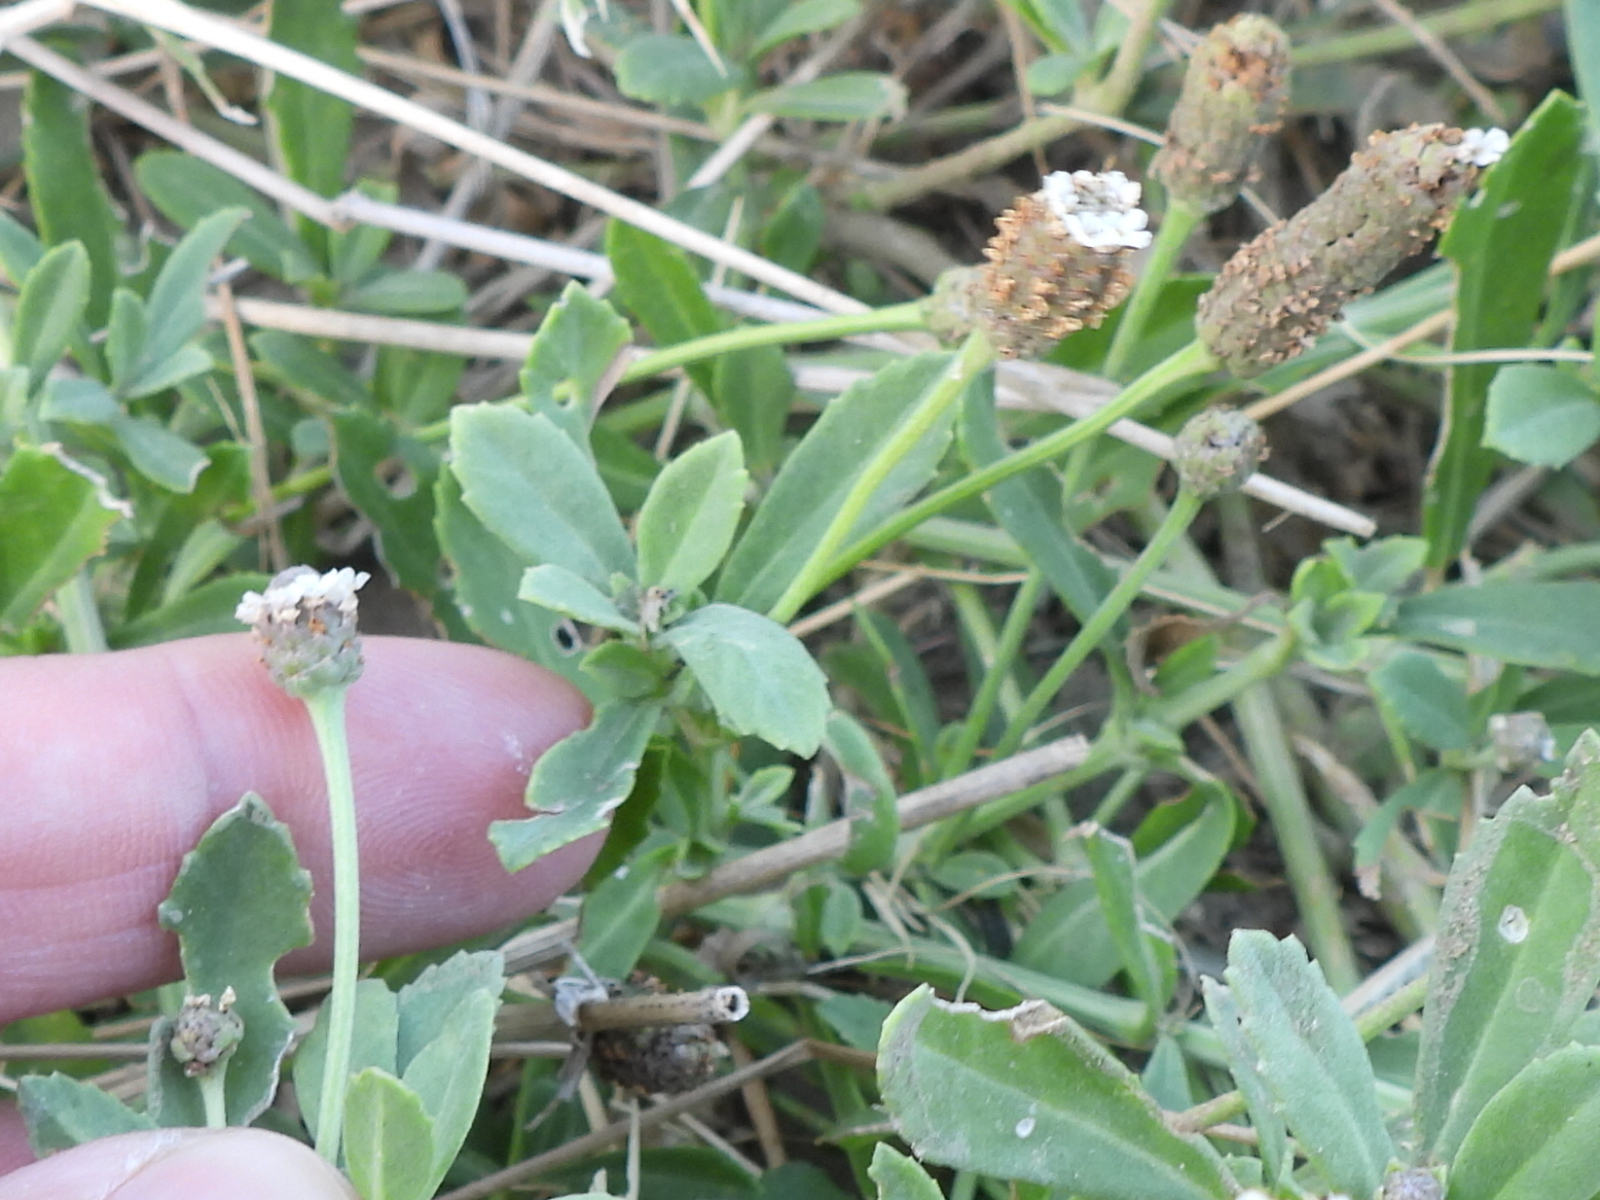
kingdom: Plantae
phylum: Tracheophyta
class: Magnoliopsida
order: Lamiales
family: Verbenaceae
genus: Phyla
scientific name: Phyla nodiflora
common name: Frogfruit
